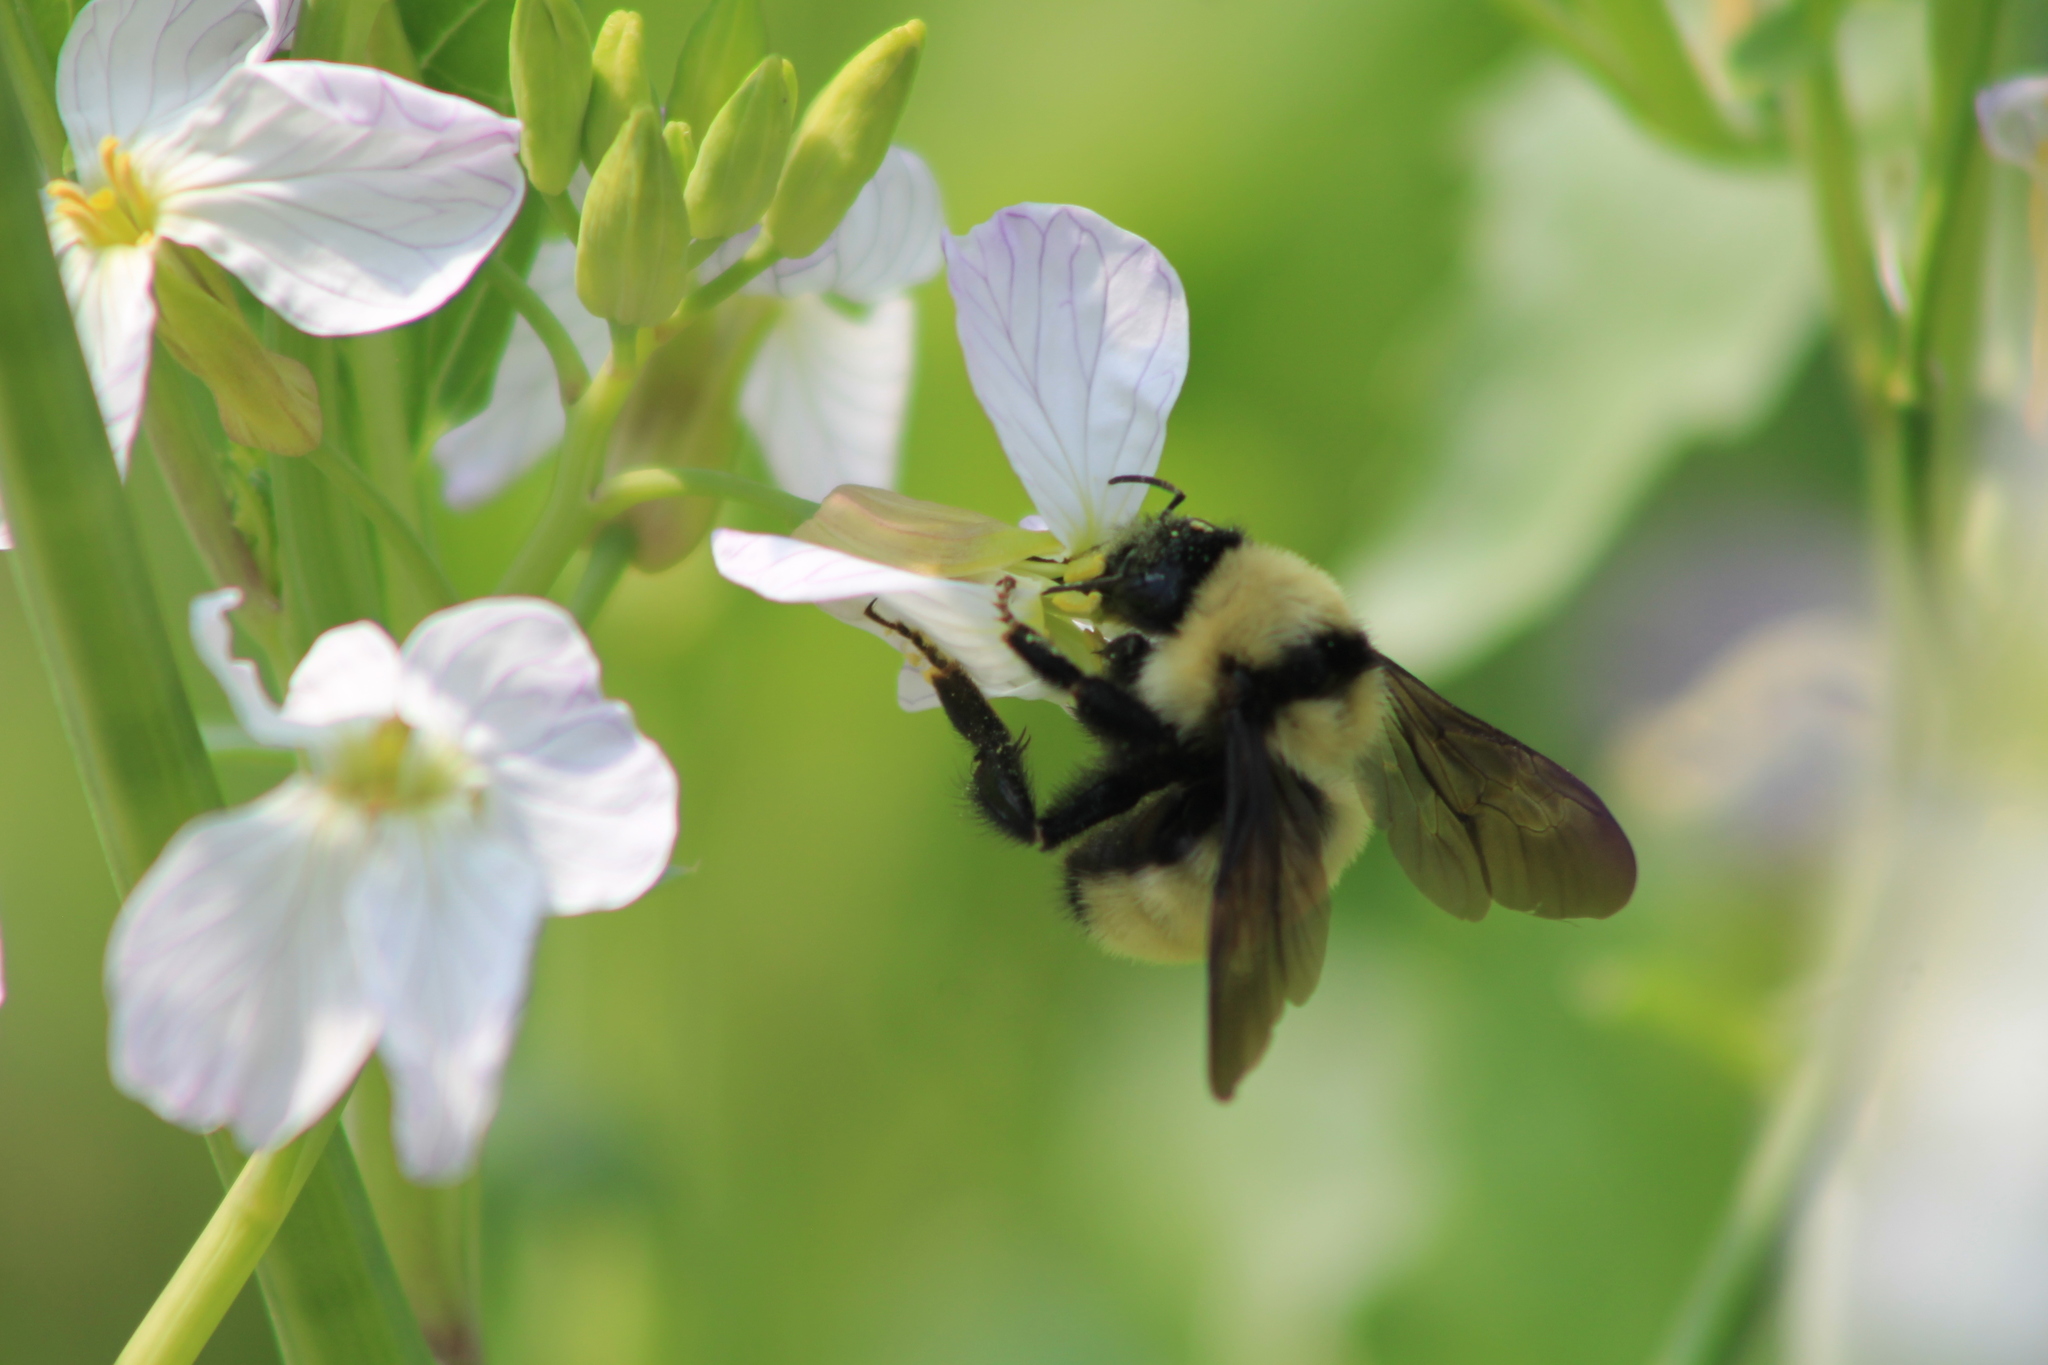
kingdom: Animalia
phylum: Arthropoda
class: Insecta
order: Hymenoptera
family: Apidae
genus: Bombus
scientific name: Bombus fervidus
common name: Yellow bumble bee
